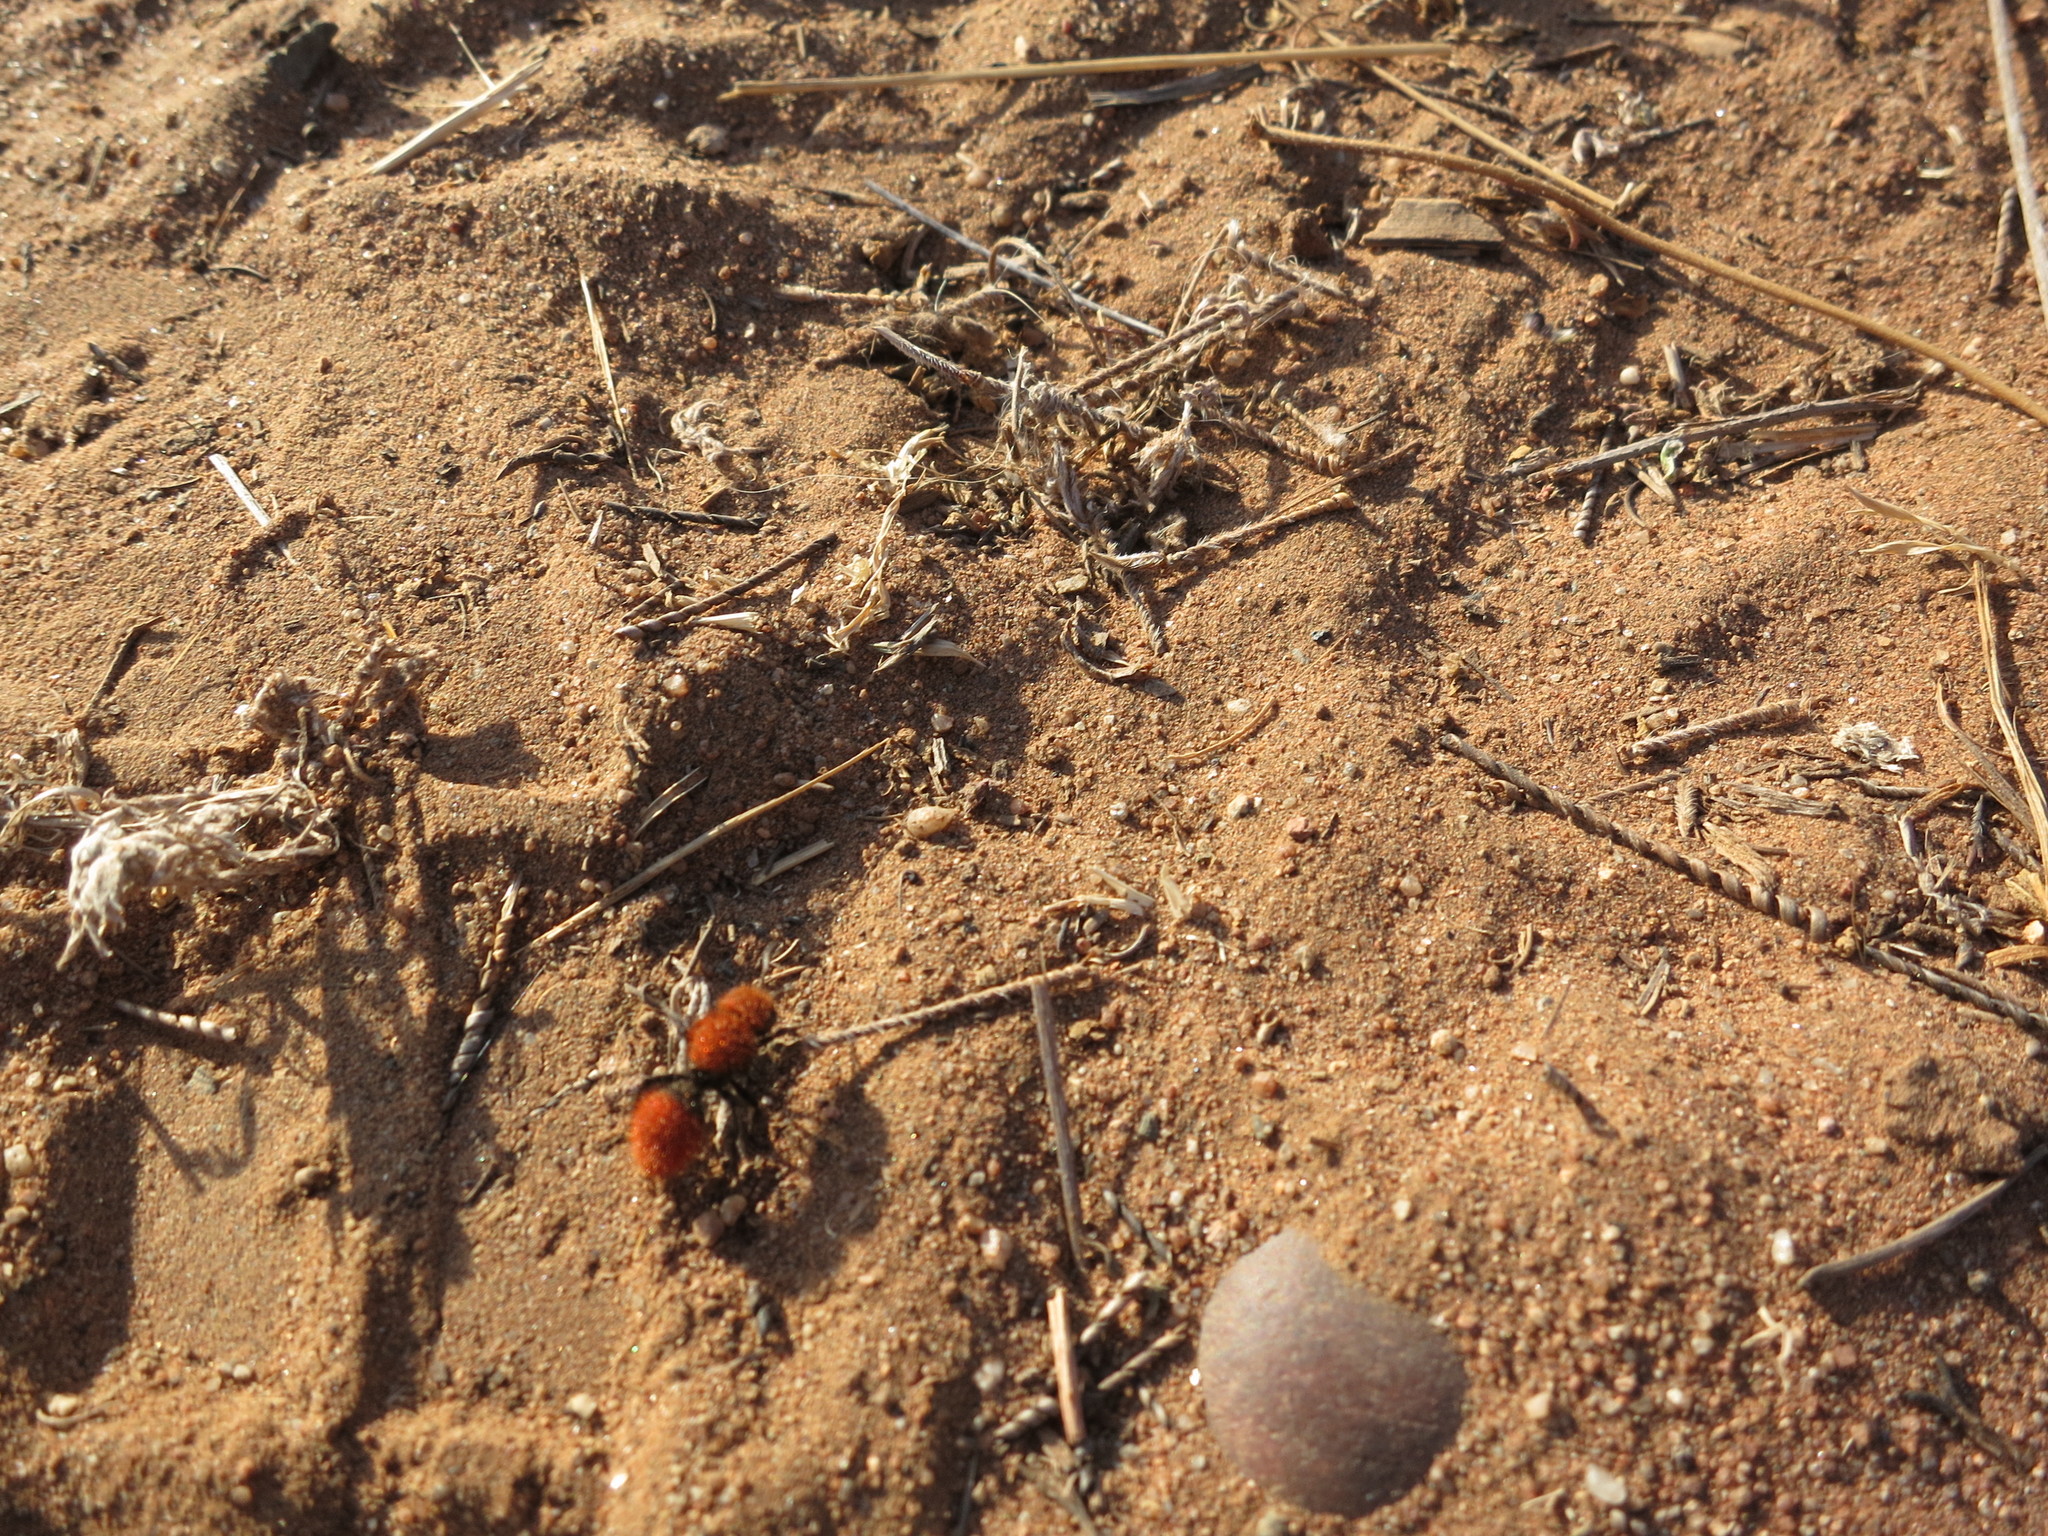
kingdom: Animalia
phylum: Arthropoda
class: Insecta
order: Hymenoptera
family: Mutillidae
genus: Dasymutilla
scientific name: Dasymutilla
